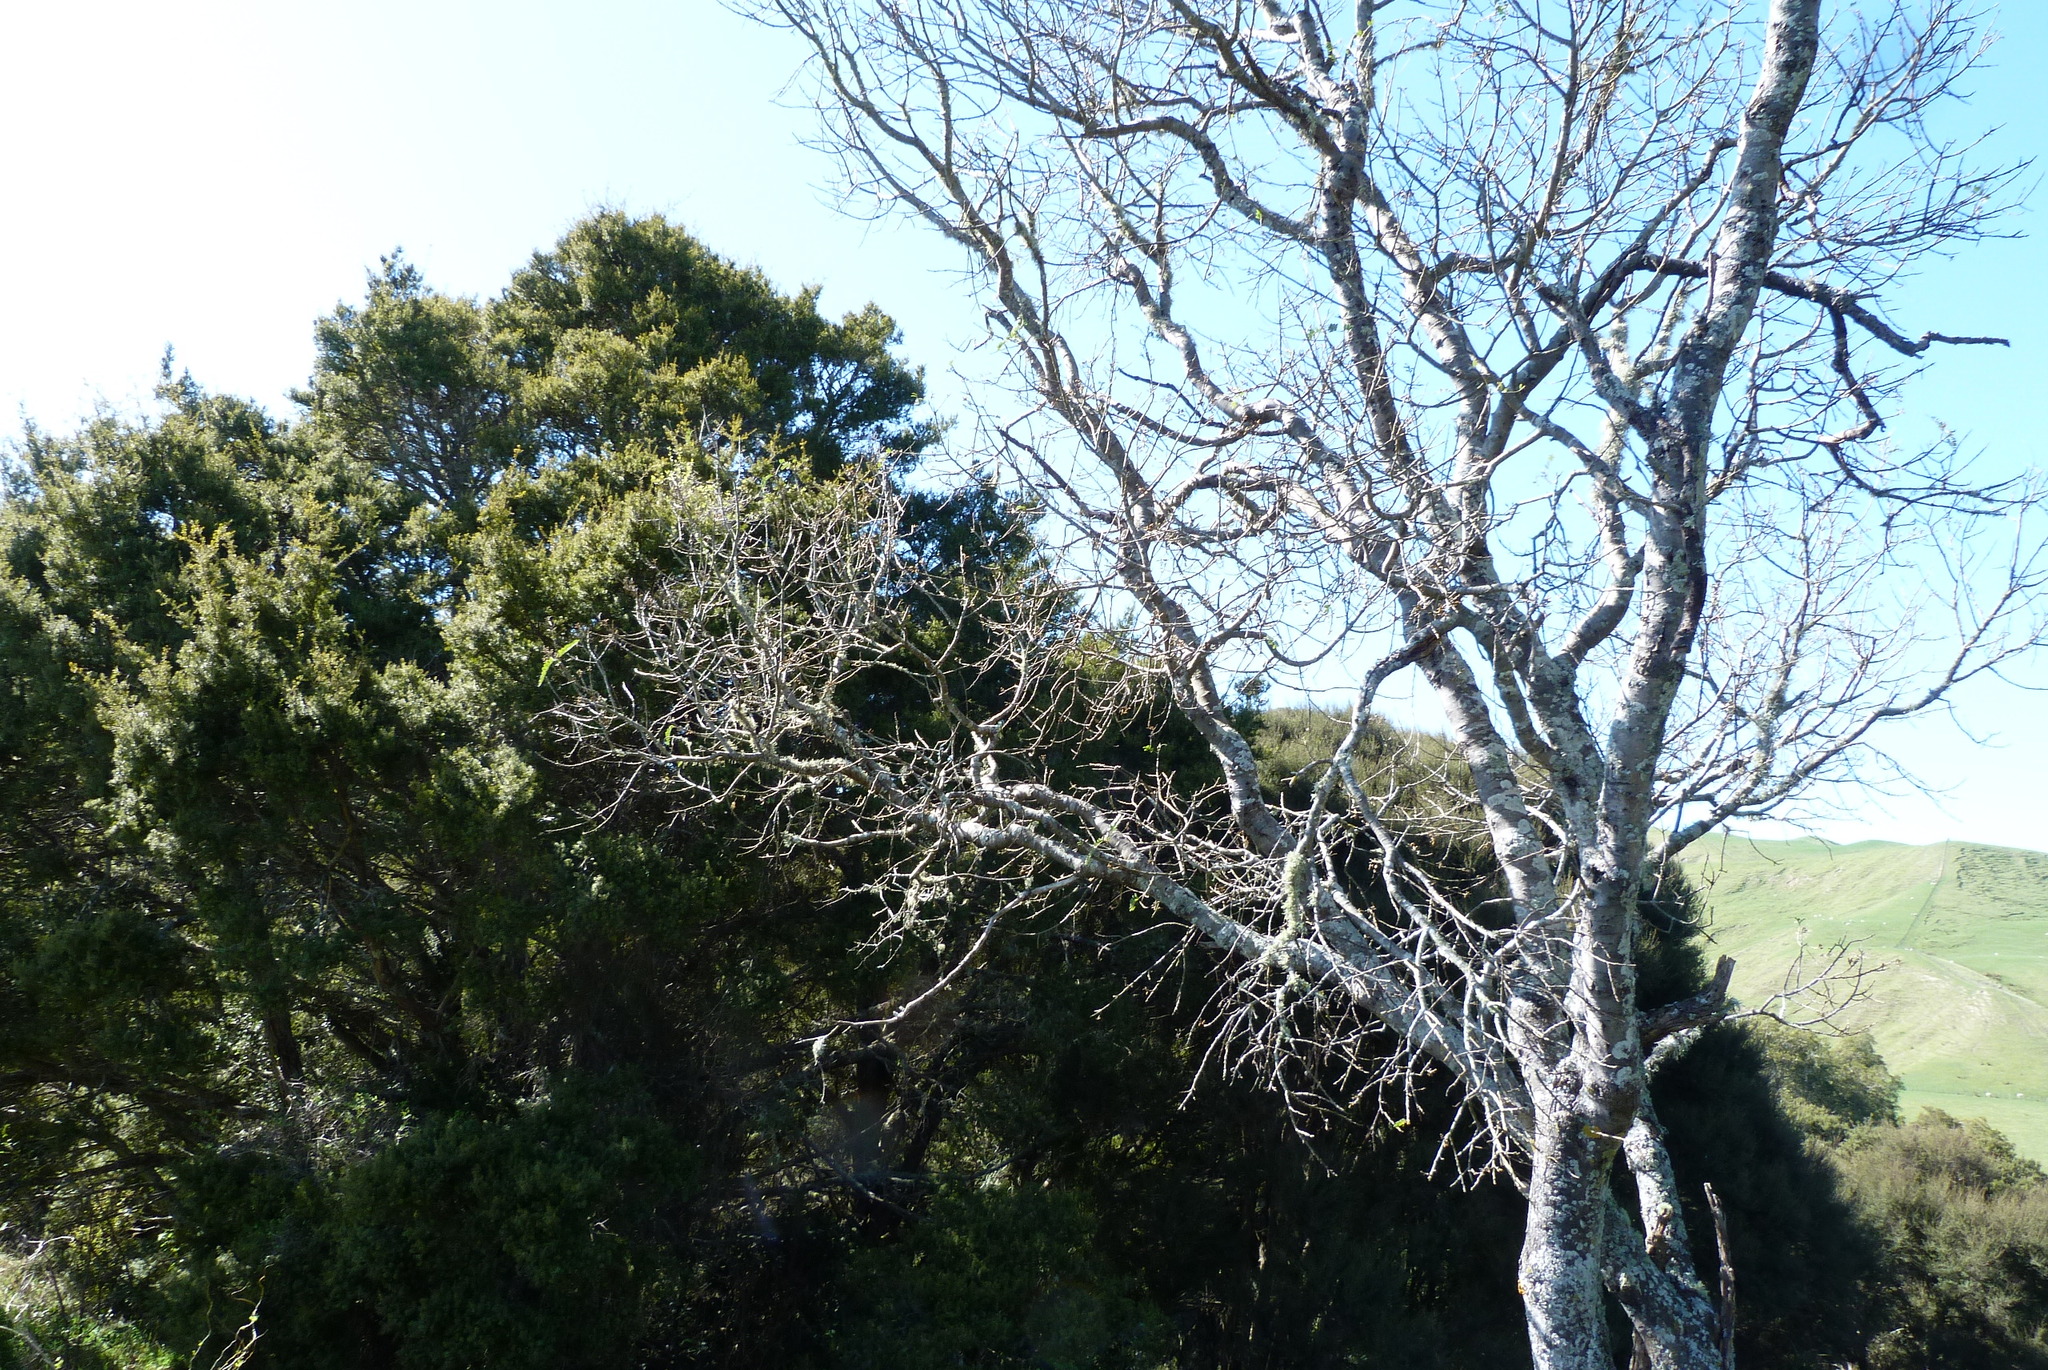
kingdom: Plantae
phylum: Tracheophyta
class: Magnoliopsida
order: Fabales
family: Fabaceae
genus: Sophora
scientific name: Sophora tetraptera
